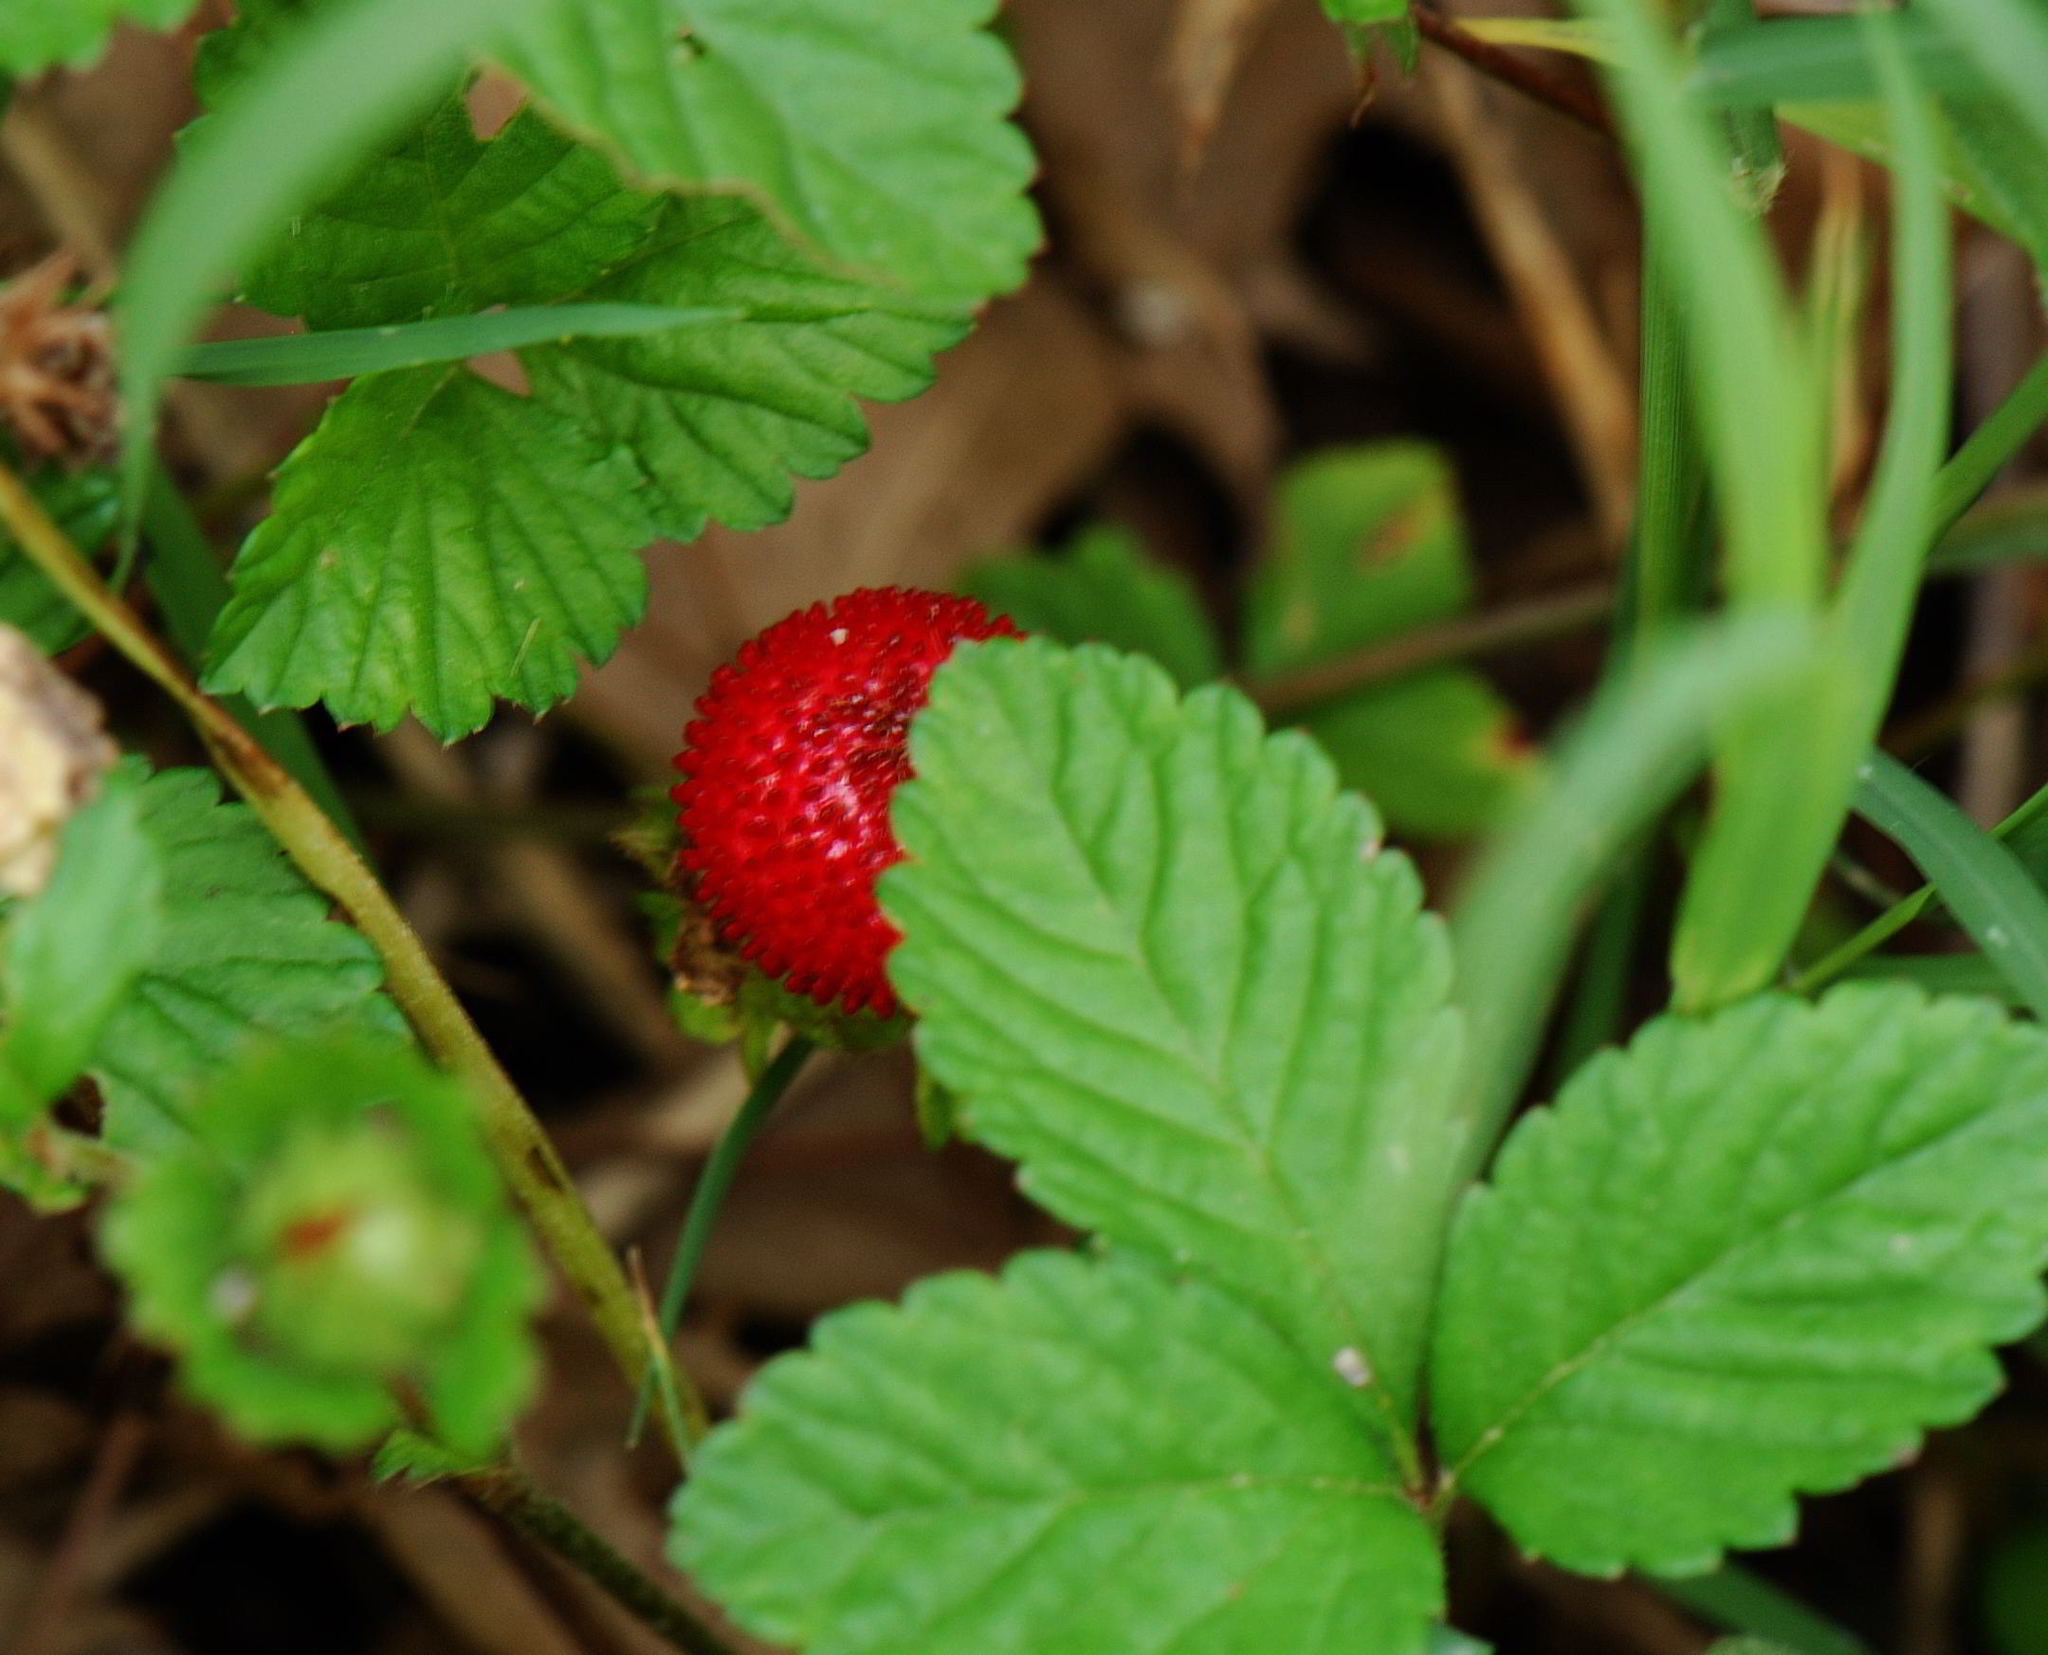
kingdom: Plantae
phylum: Tracheophyta
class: Magnoliopsida
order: Rosales
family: Rosaceae
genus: Potentilla
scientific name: Potentilla indica
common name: Yellow-flowered strawberry
